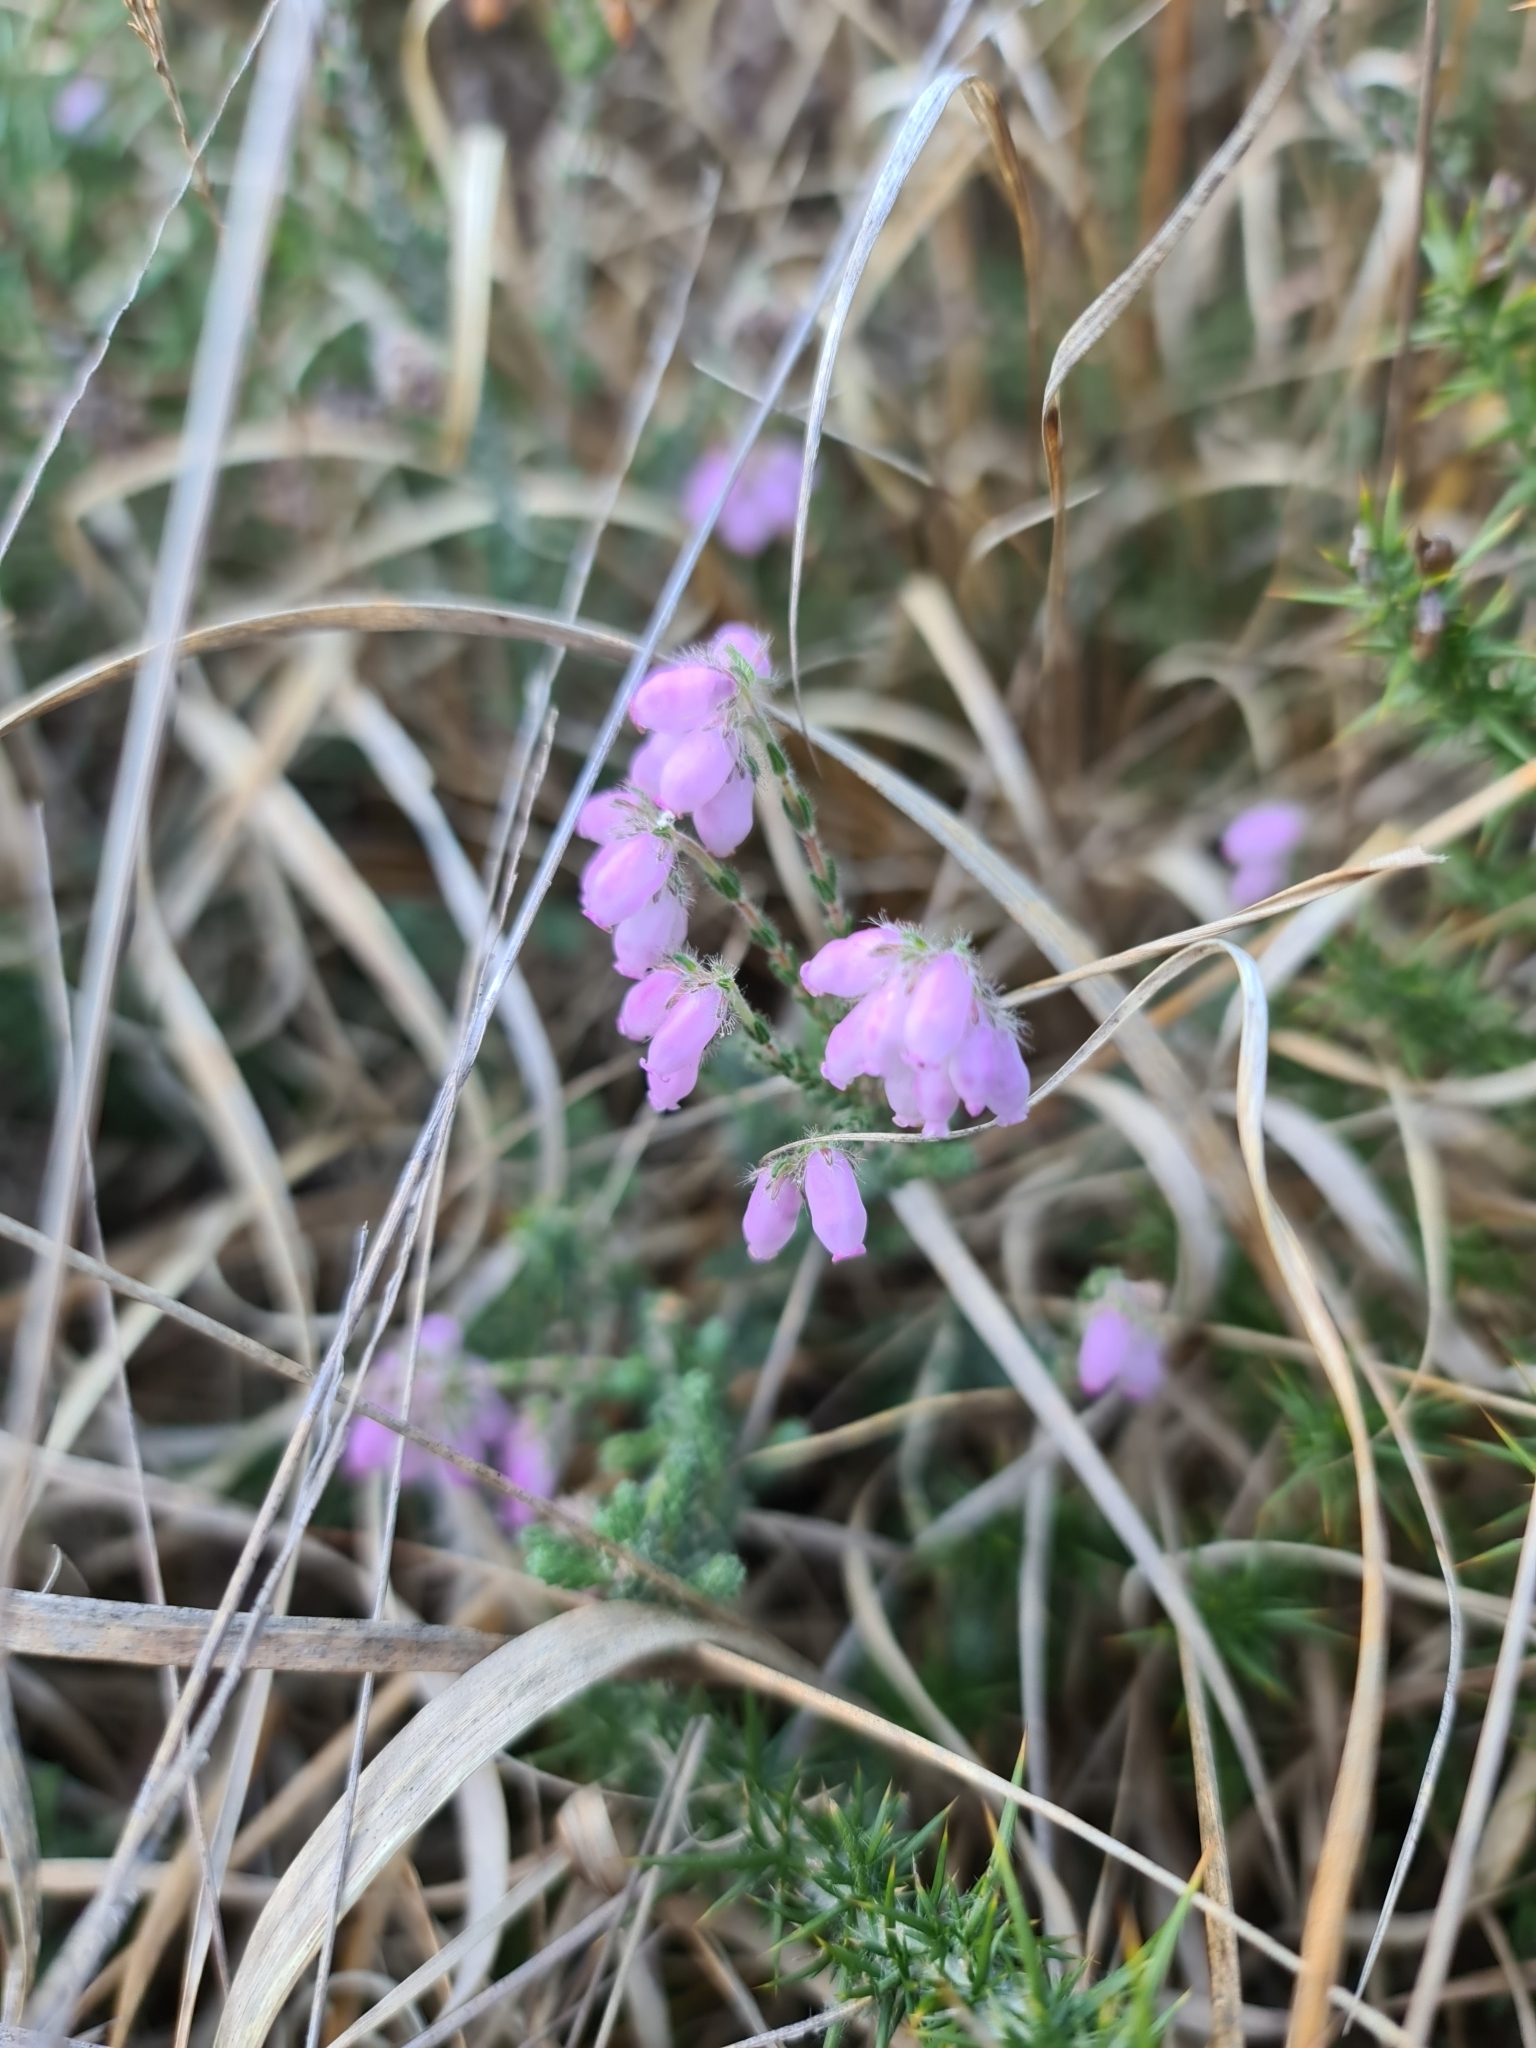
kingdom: Plantae
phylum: Tracheophyta
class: Magnoliopsida
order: Ericales
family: Ericaceae
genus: Erica
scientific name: Erica tetralix
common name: Cross-leaved heath
